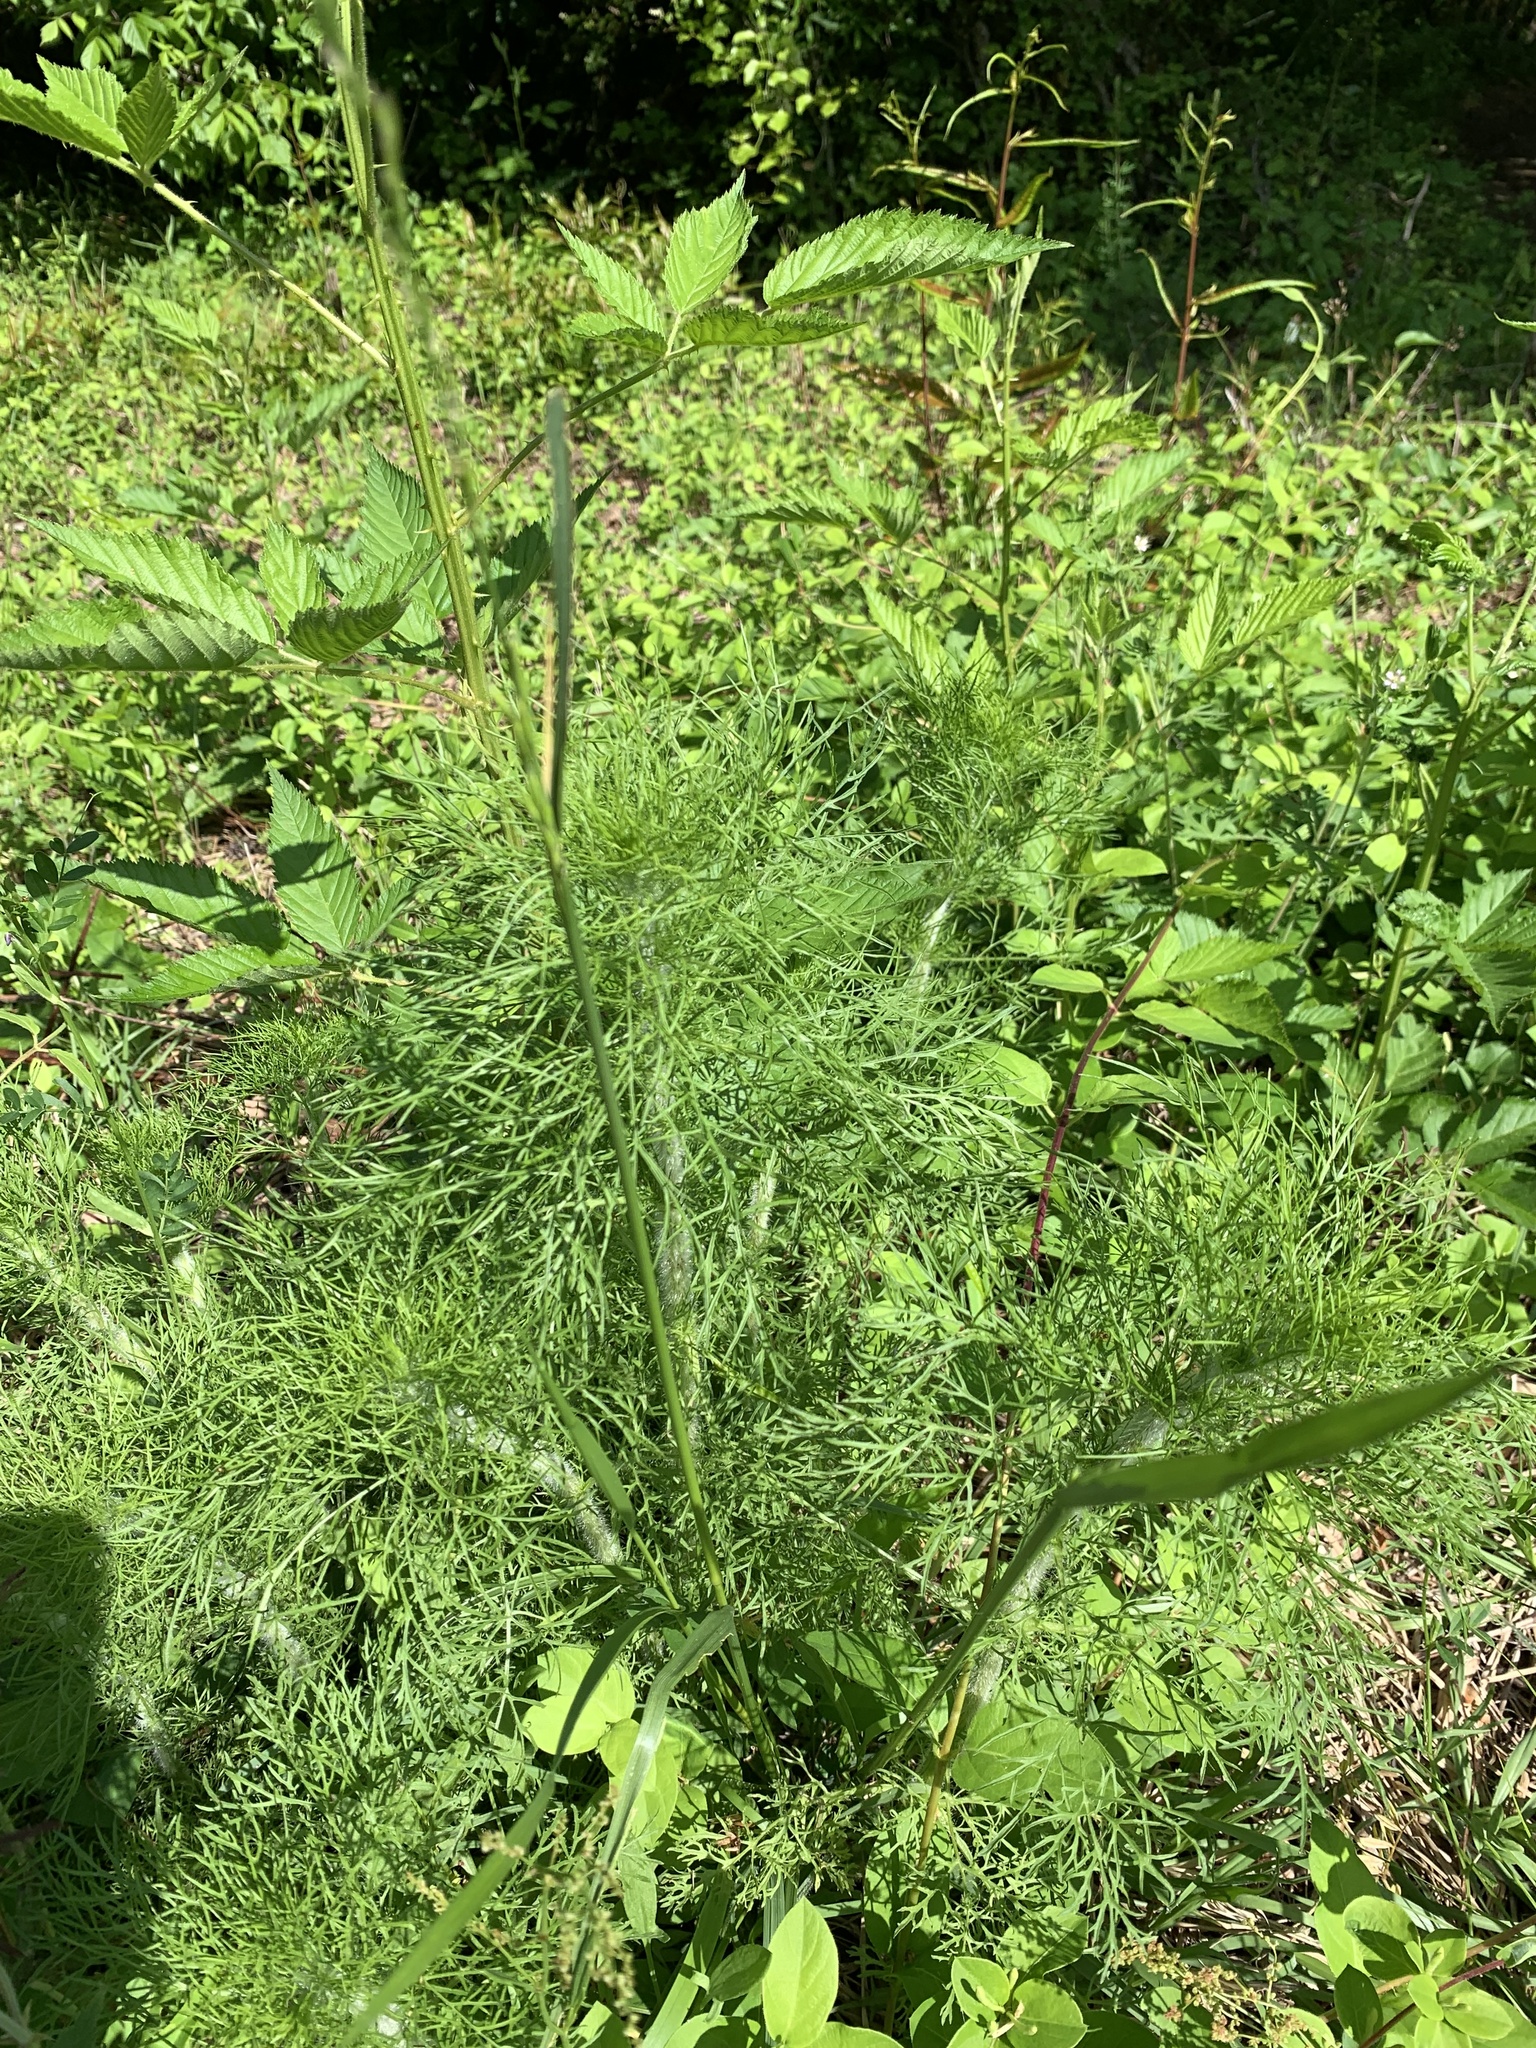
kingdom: Plantae
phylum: Tracheophyta
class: Magnoliopsida
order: Asterales
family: Asteraceae
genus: Eupatorium
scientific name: Eupatorium capillifolium
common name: Dog-fennel
